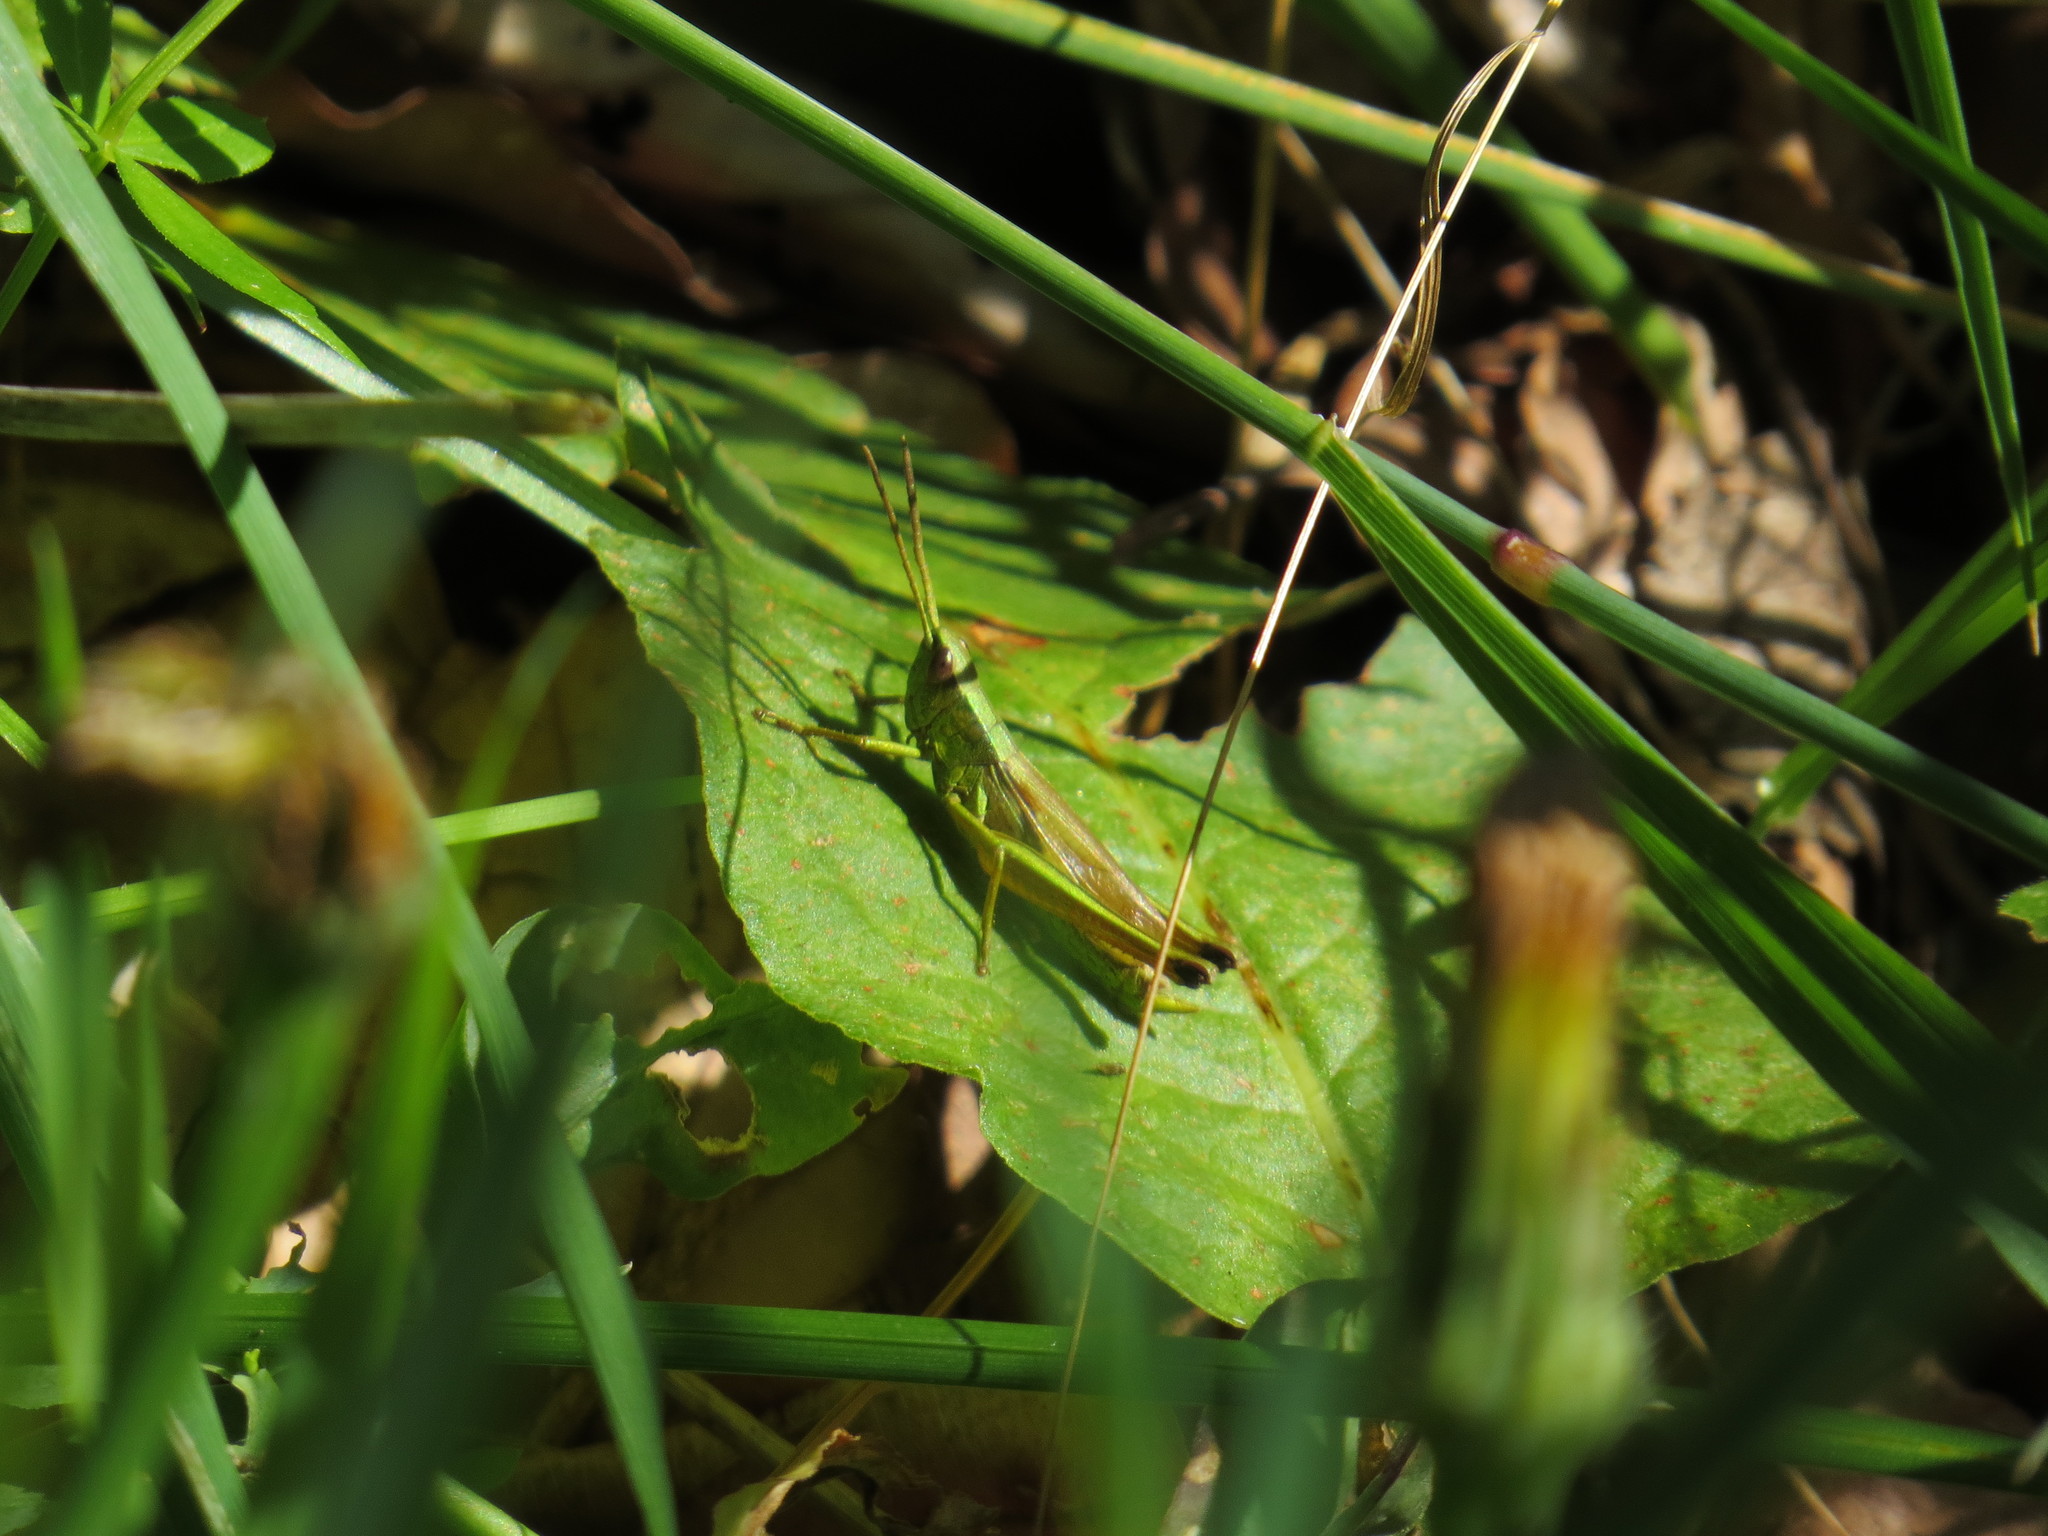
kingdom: Animalia
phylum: Arthropoda
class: Insecta
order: Orthoptera
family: Acrididae
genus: Chrysochraon
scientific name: Chrysochraon dispar
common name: Large gold grasshopper
